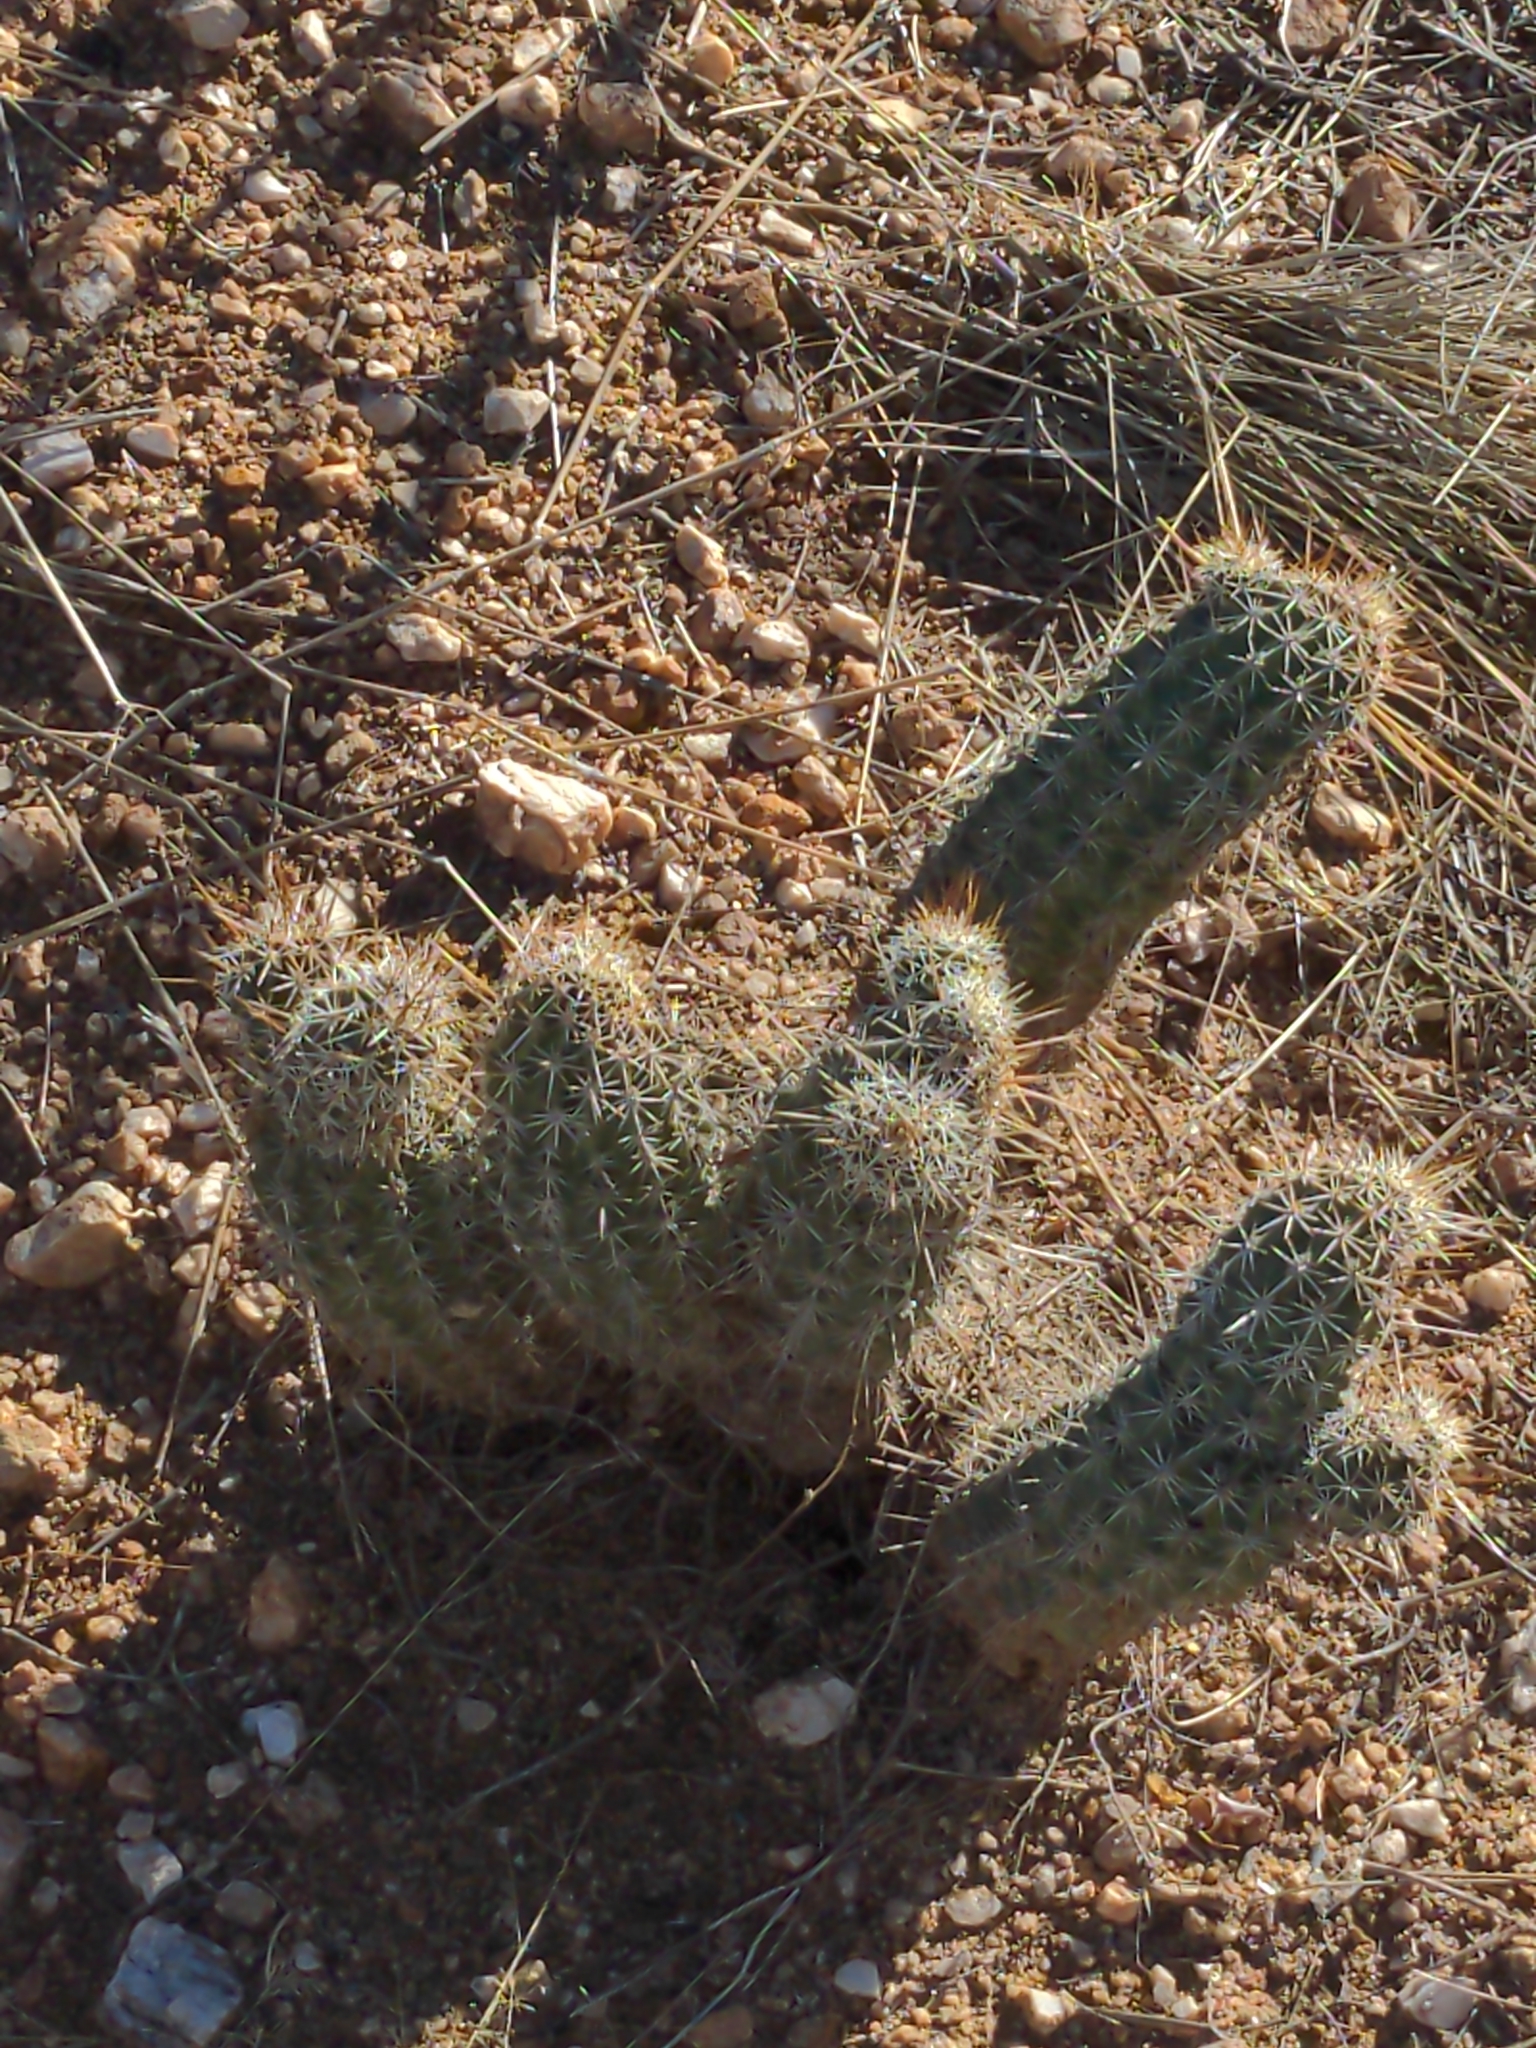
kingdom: Plantae
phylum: Tracheophyta
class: Magnoliopsida
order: Caryophyllales
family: Cactaceae
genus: Echinocereus
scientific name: Echinocereus fasciculatus
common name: Bundle hedgehog
